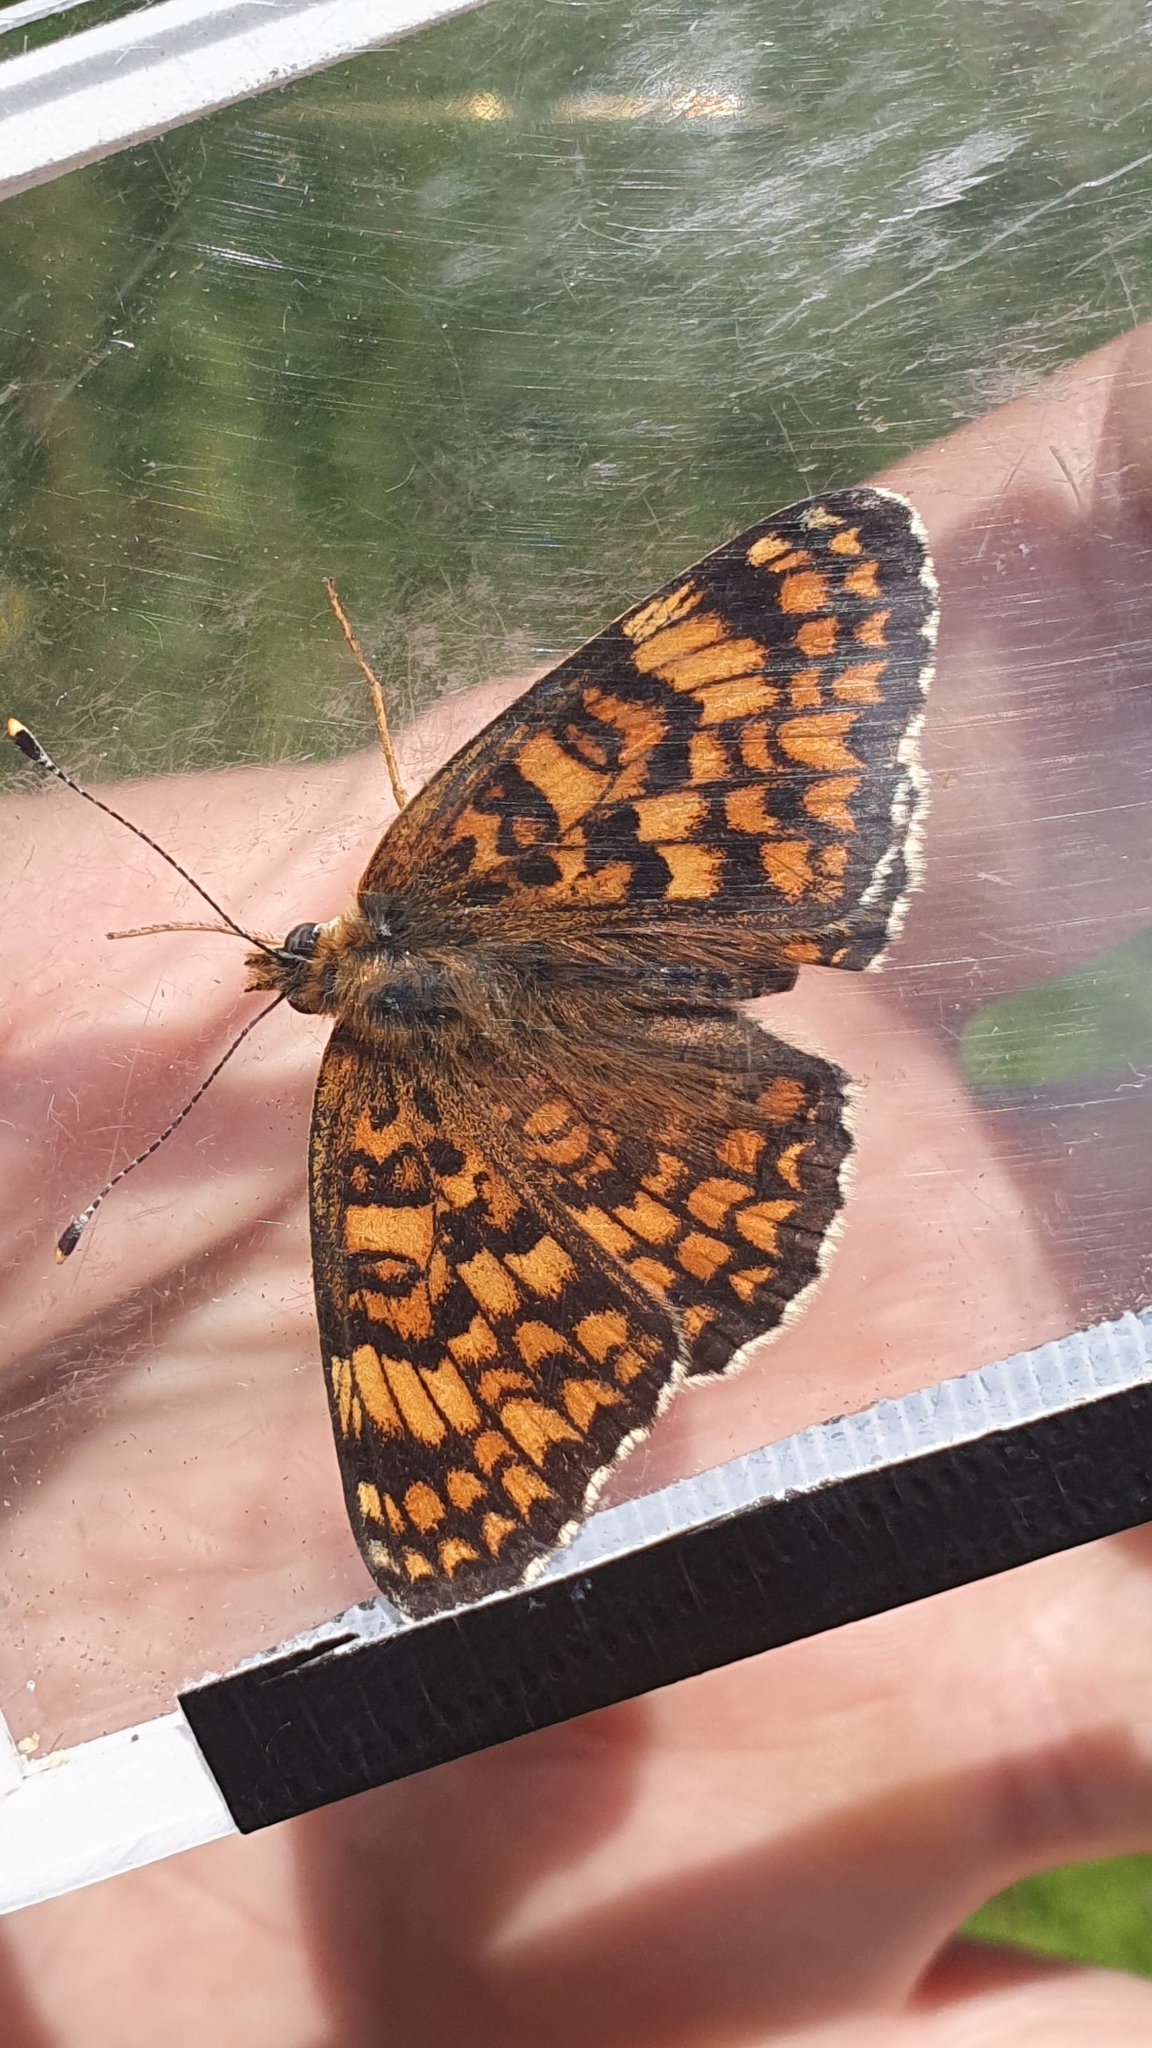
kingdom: Animalia
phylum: Arthropoda
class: Insecta
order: Lepidoptera
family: Nymphalidae
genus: Melitaea
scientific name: Melitaea phoebe
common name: Knapweed fritillary
